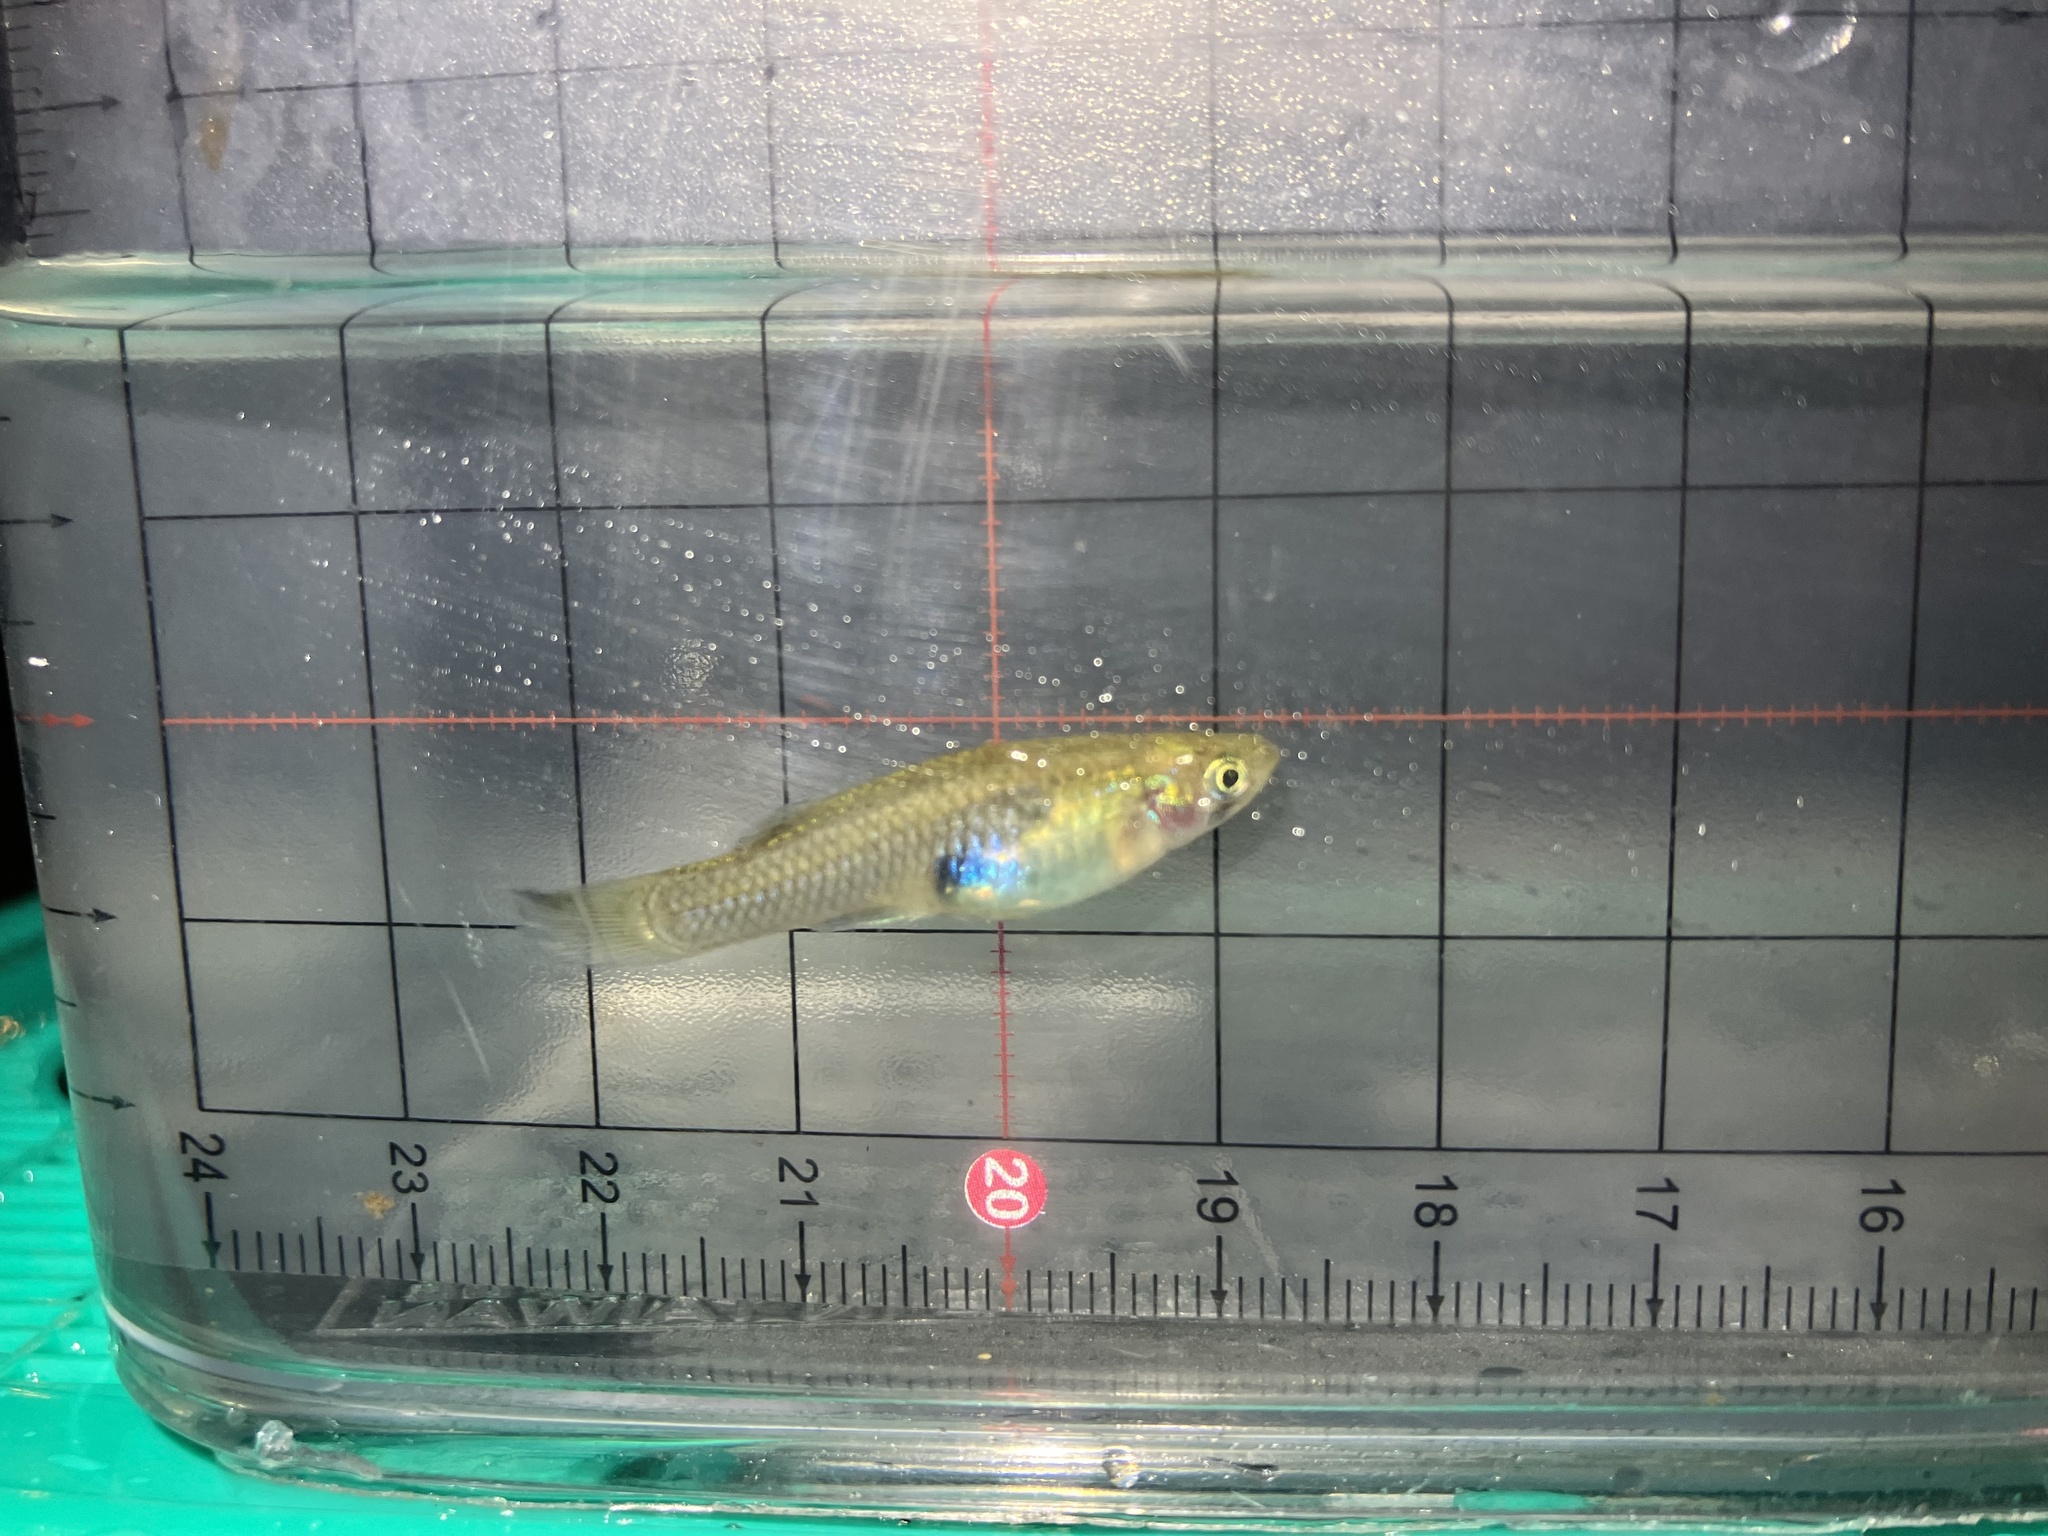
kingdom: Animalia
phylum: Chordata
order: Cyprinodontiformes
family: Poeciliidae
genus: Gambusia
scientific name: Gambusia affinis
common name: Mosquitofish
